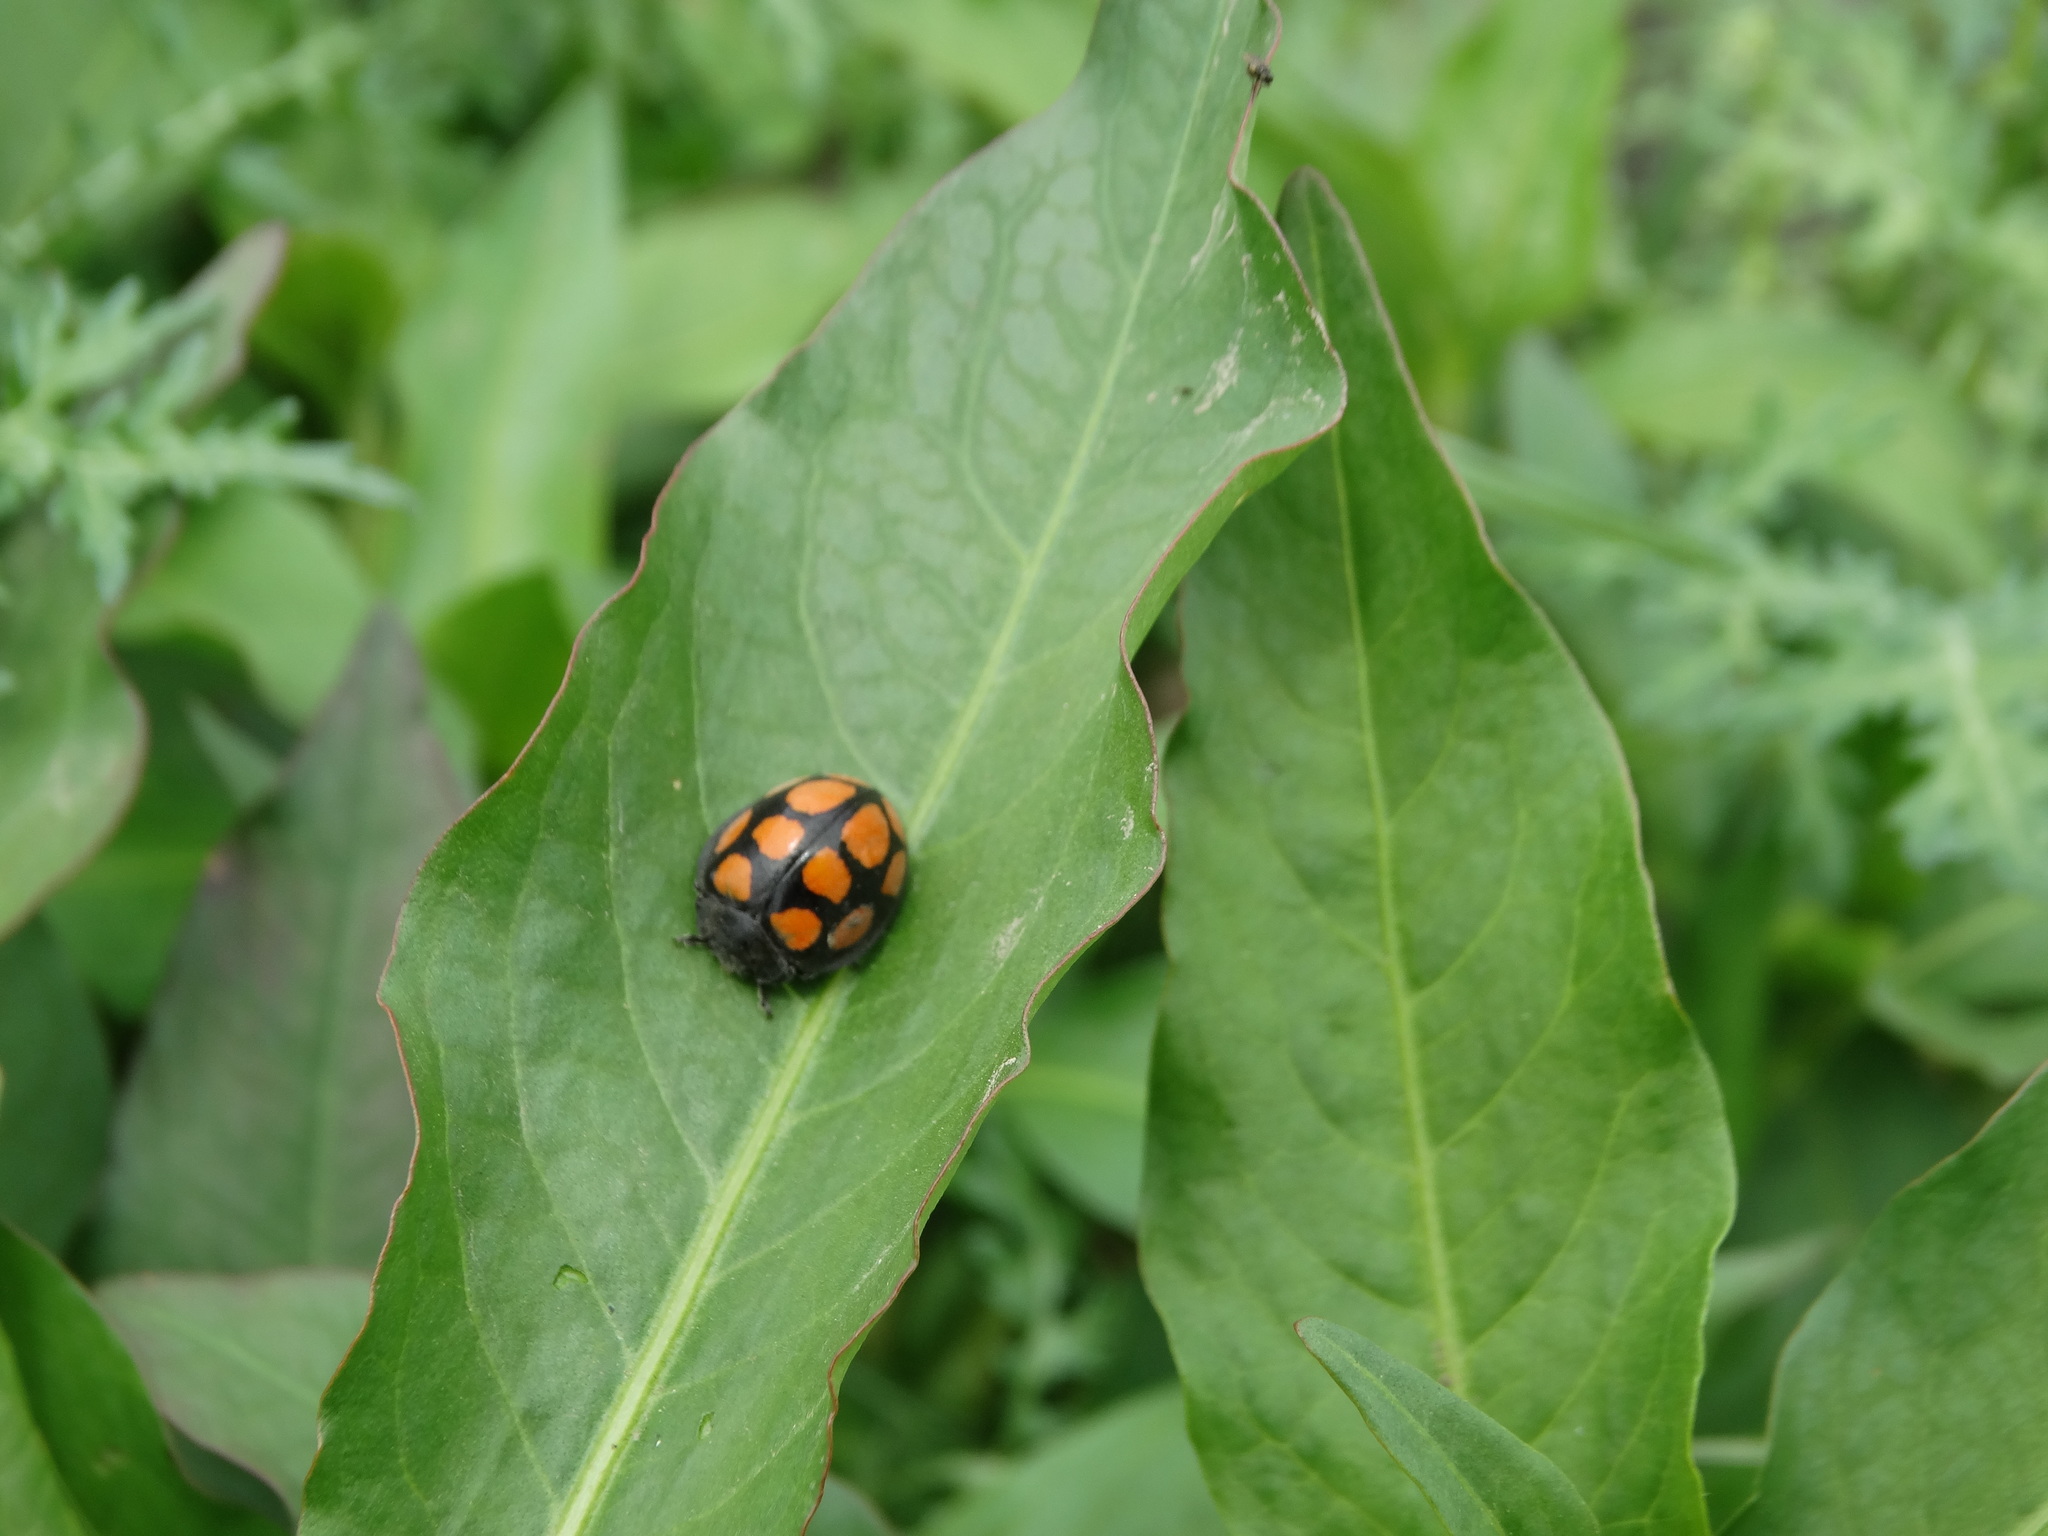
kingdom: Animalia
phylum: Arthropoda
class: Insecta
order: Coleoptera
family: Coccinellidae
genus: Epilachna
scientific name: Epilachna
